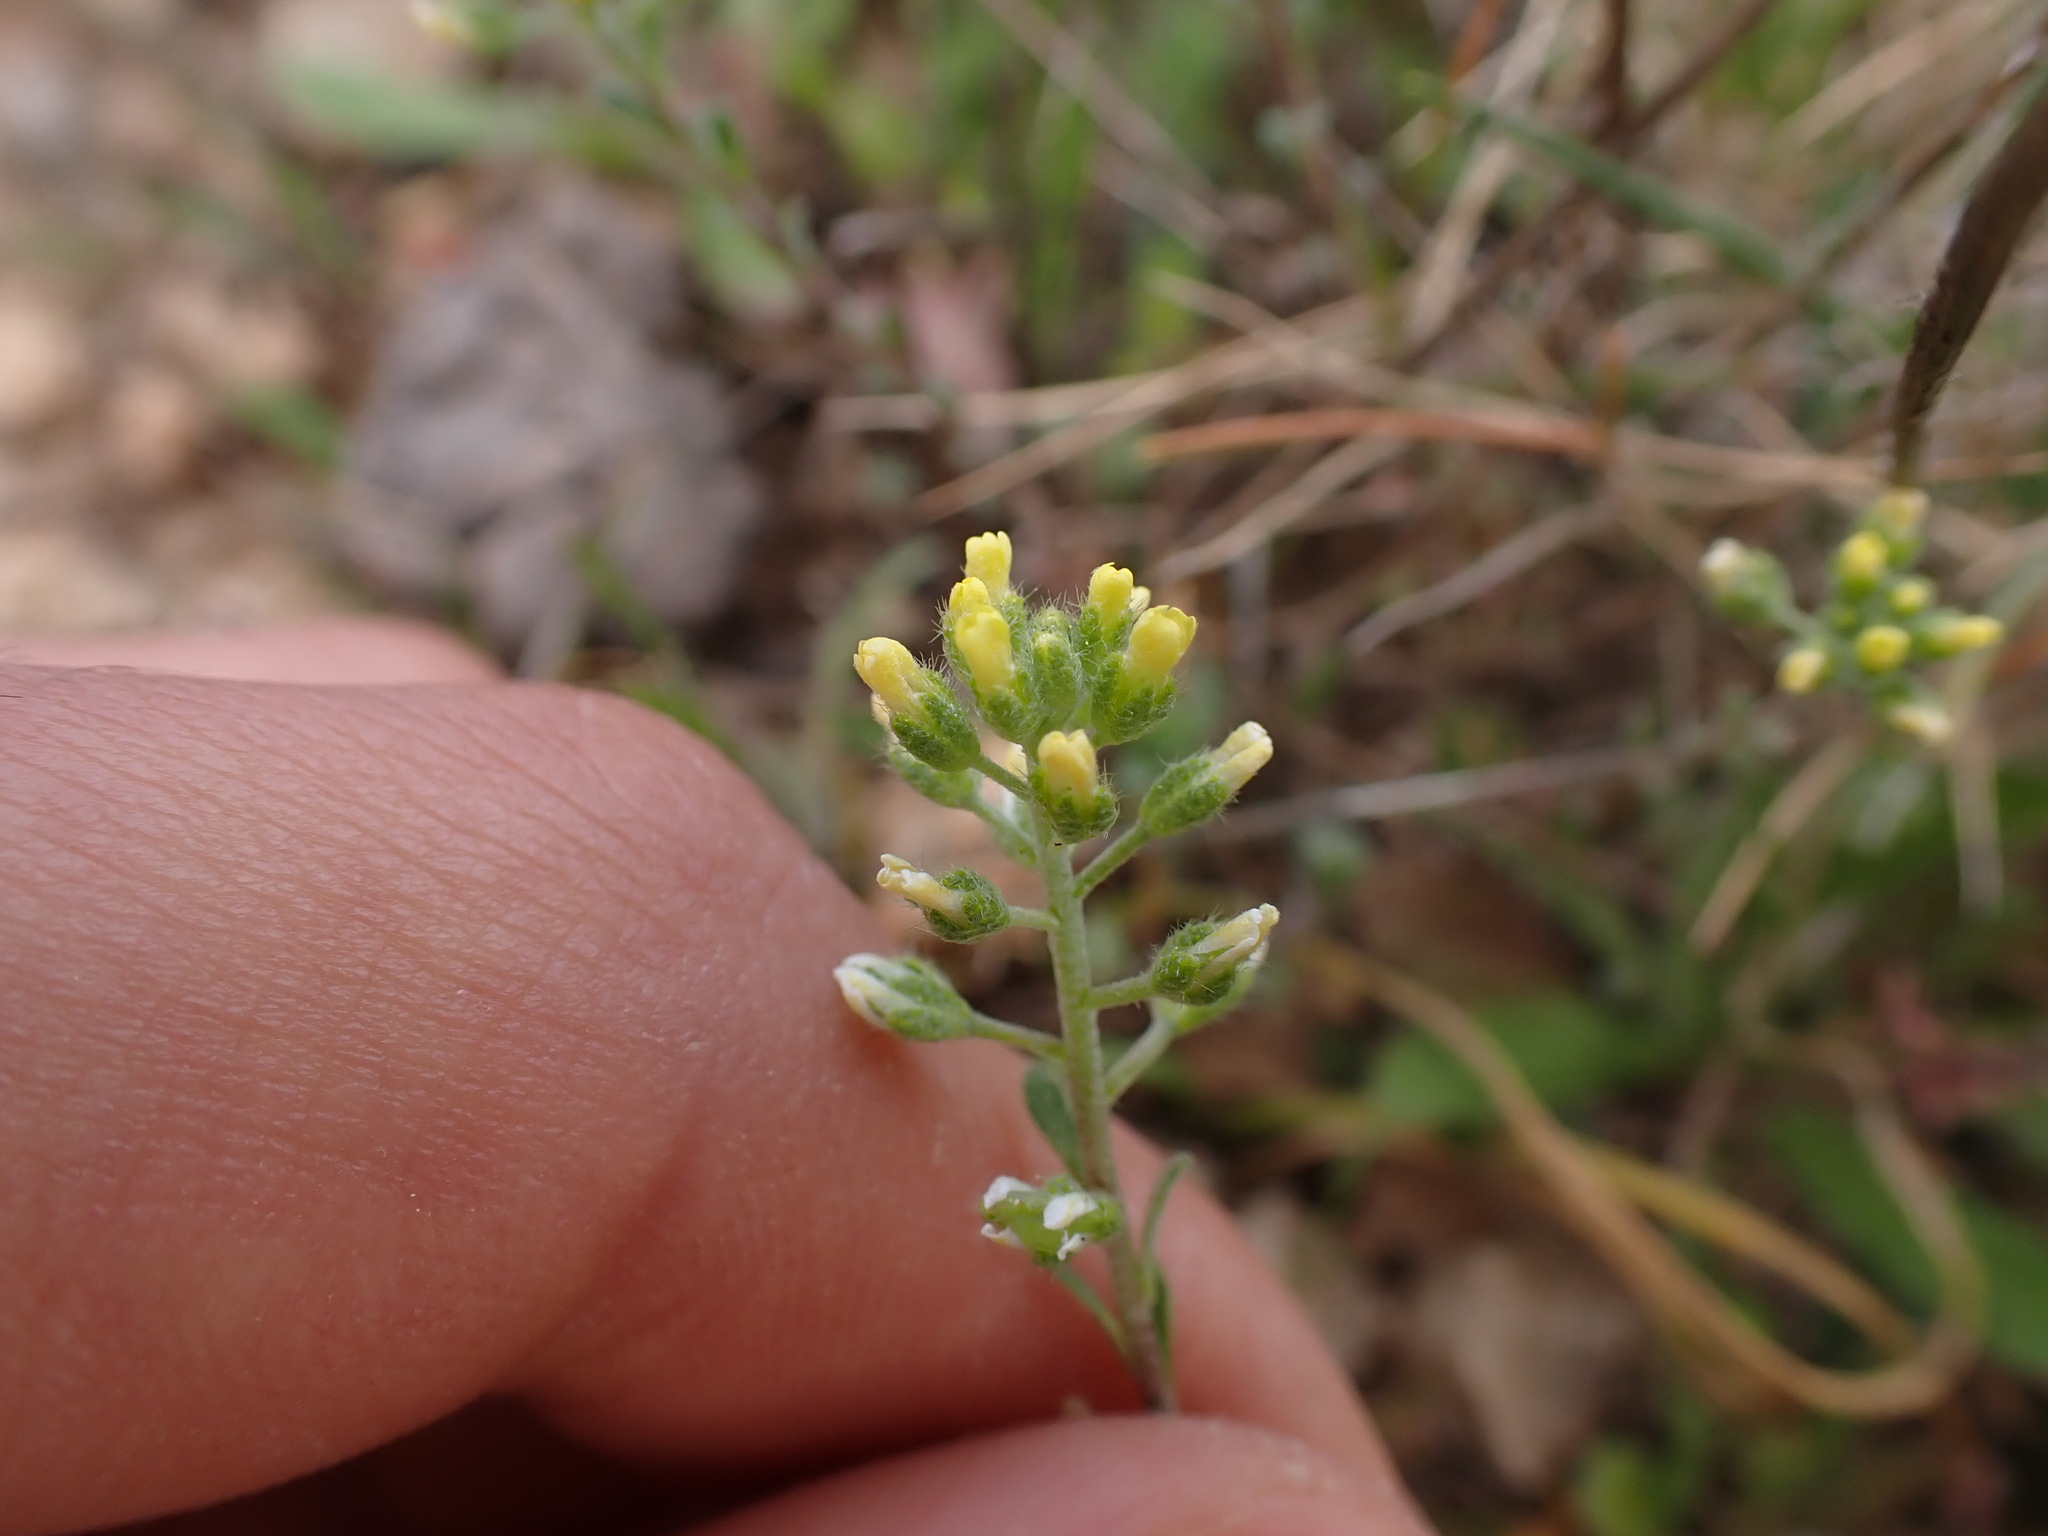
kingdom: Plantae
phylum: Tracheophyta
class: Magnoliopsida
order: Brassicales
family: Brassicaceae
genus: Alyssum
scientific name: Alyssum alyssoides
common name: Small alison
